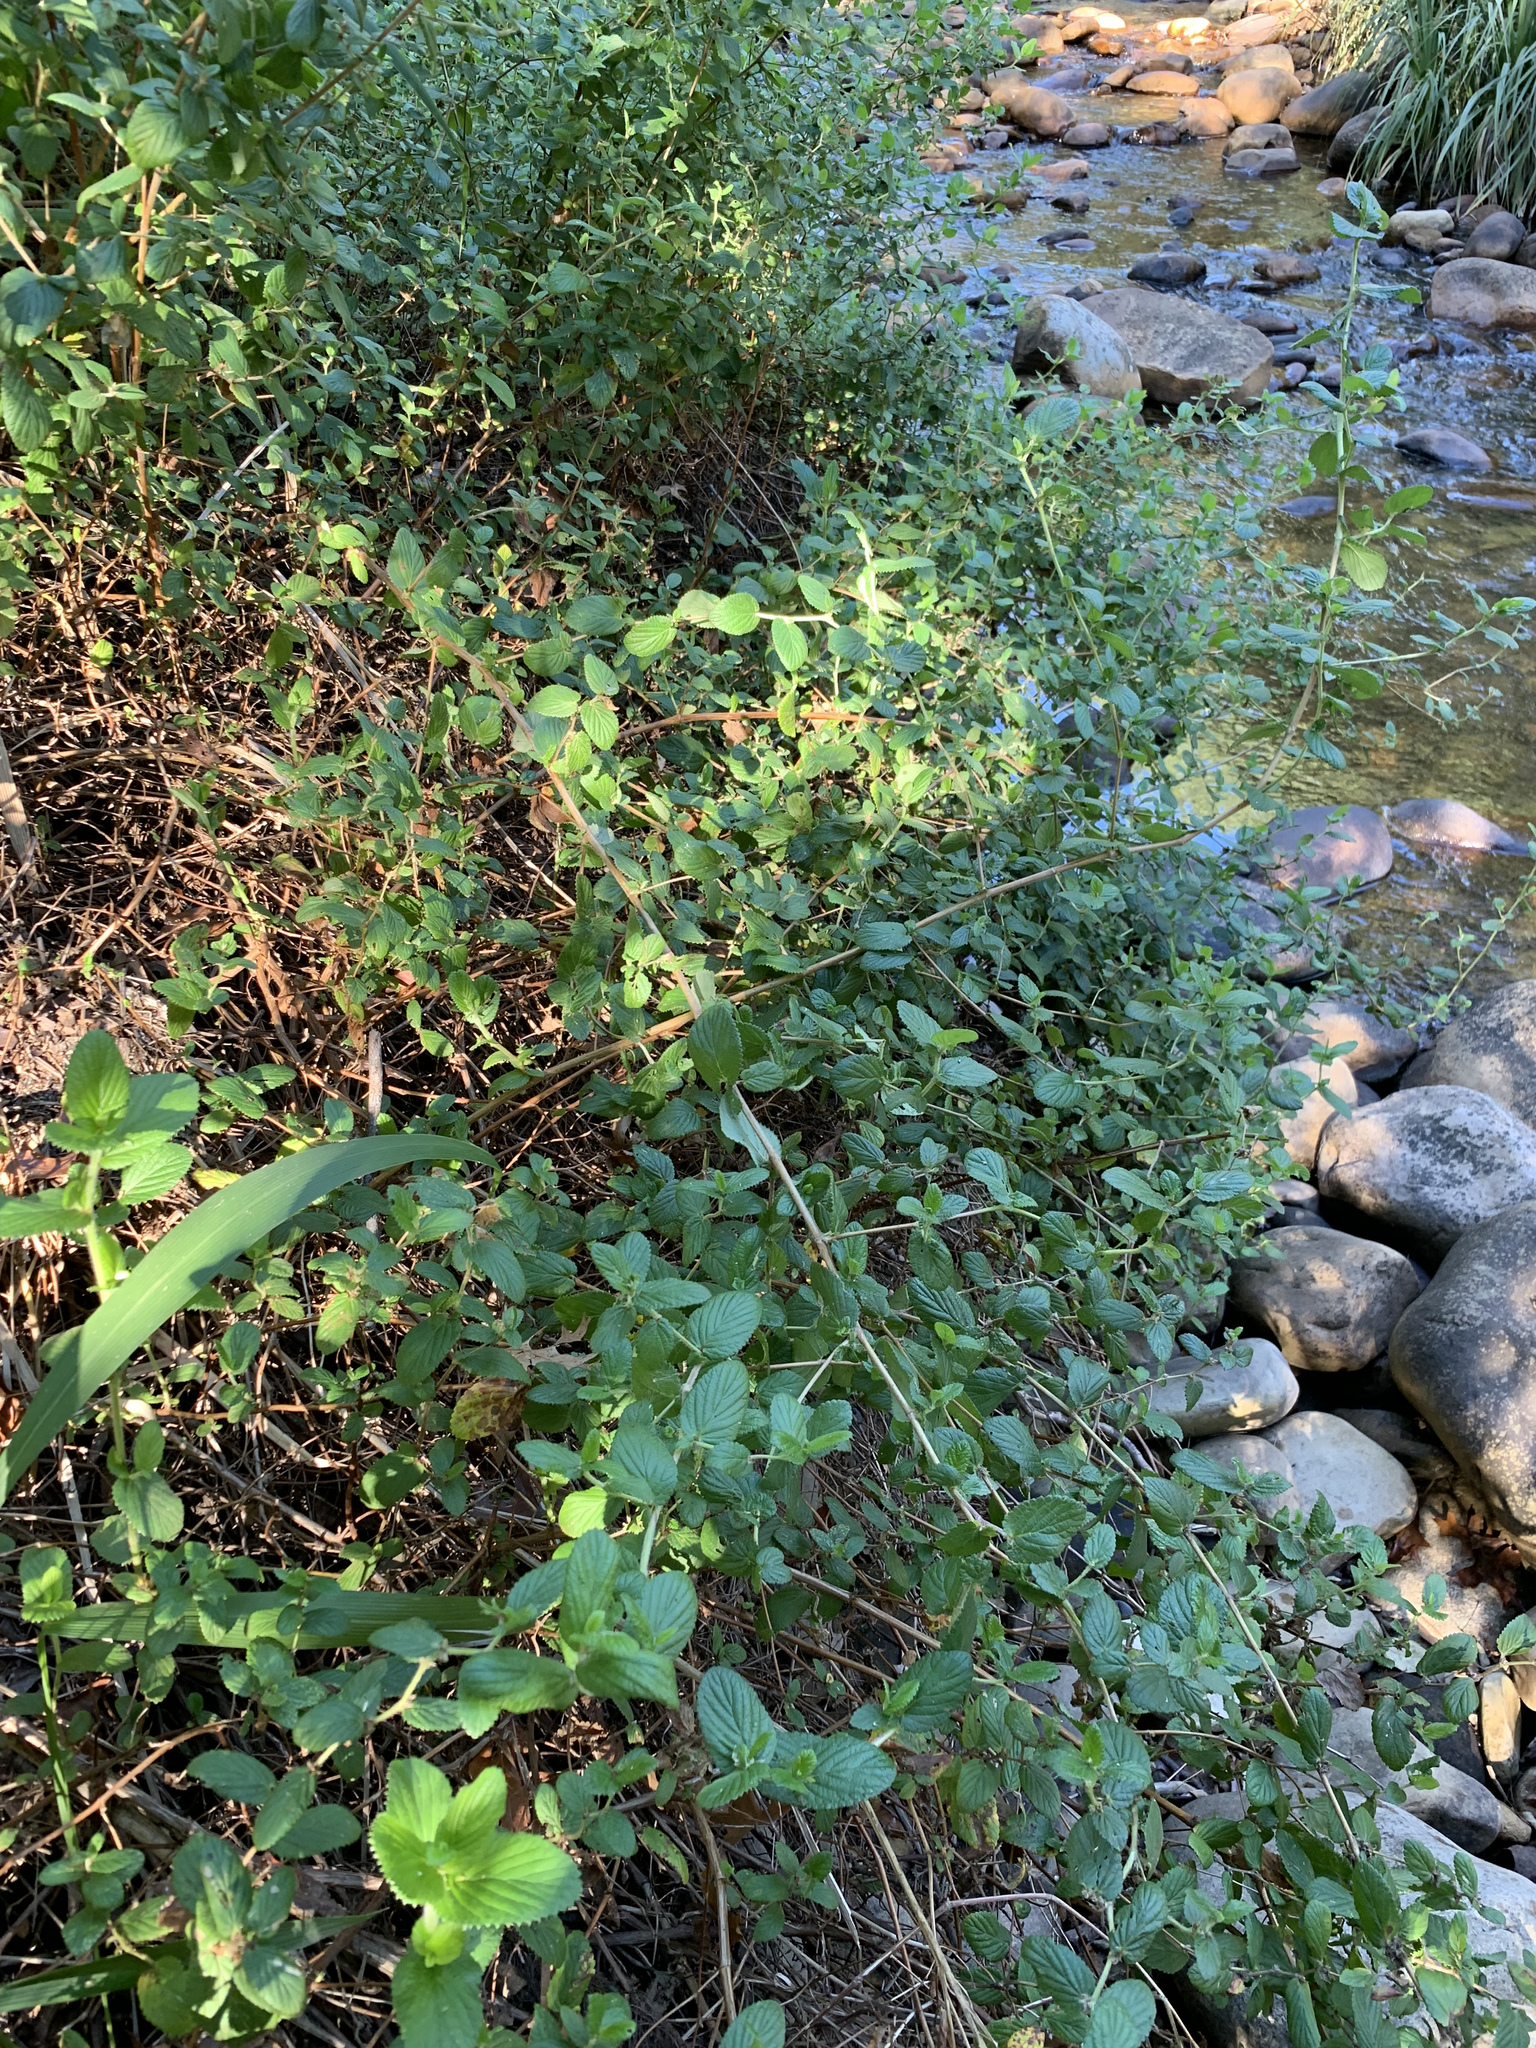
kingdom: Plantae
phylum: Tracheophyta
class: Magnoliopsida
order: Rosales
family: Rosaceae
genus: Cliffortia
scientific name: Cliffortia odorata
